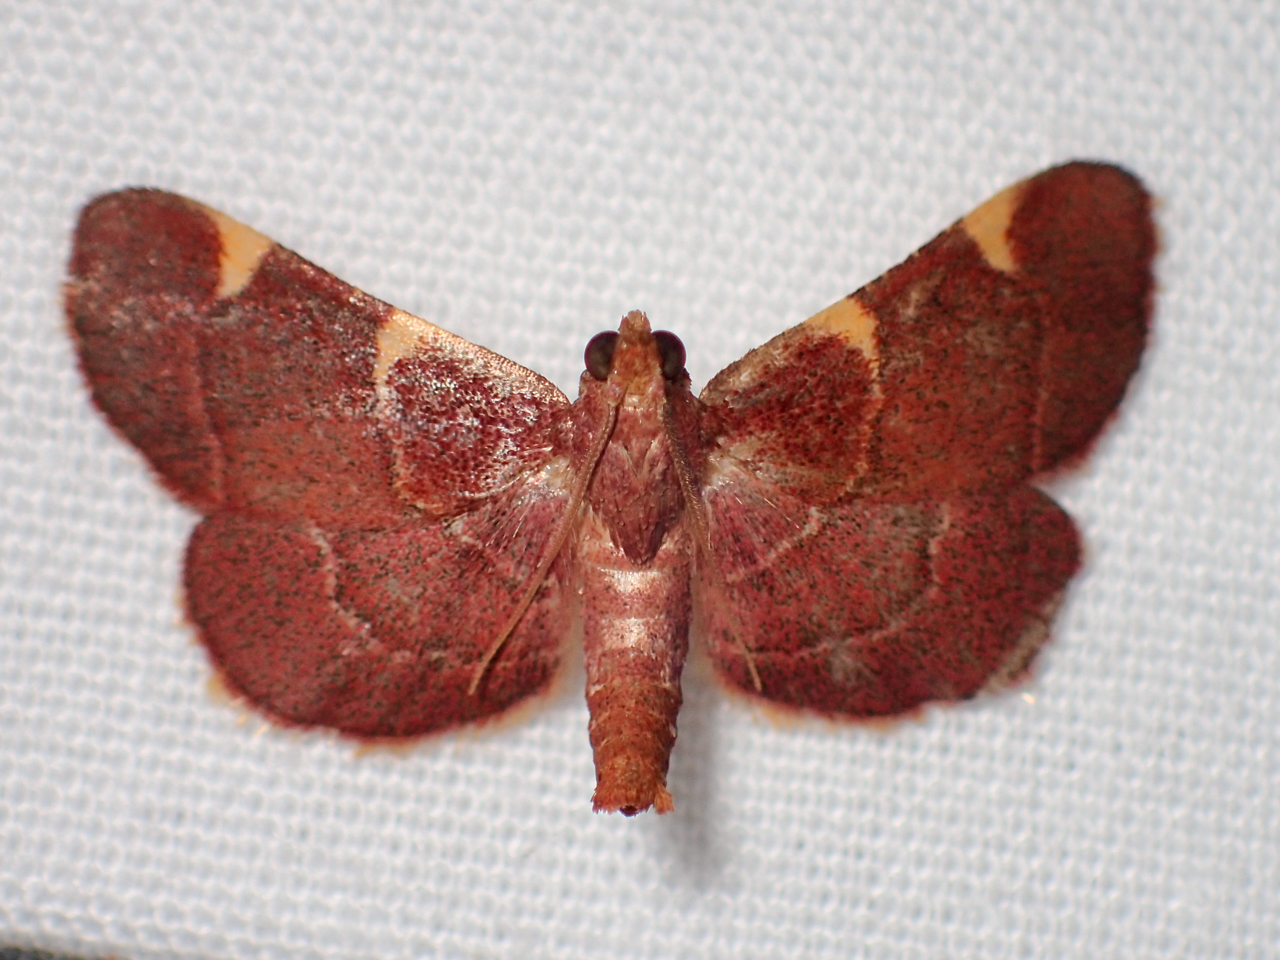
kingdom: Animalia
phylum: Arthropoda
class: Insecta
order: Lepidoptera
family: Pyralidae
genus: Hypsopygia
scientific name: Hypsopygia olinalis
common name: Yellow-fringed dolichomia moth
